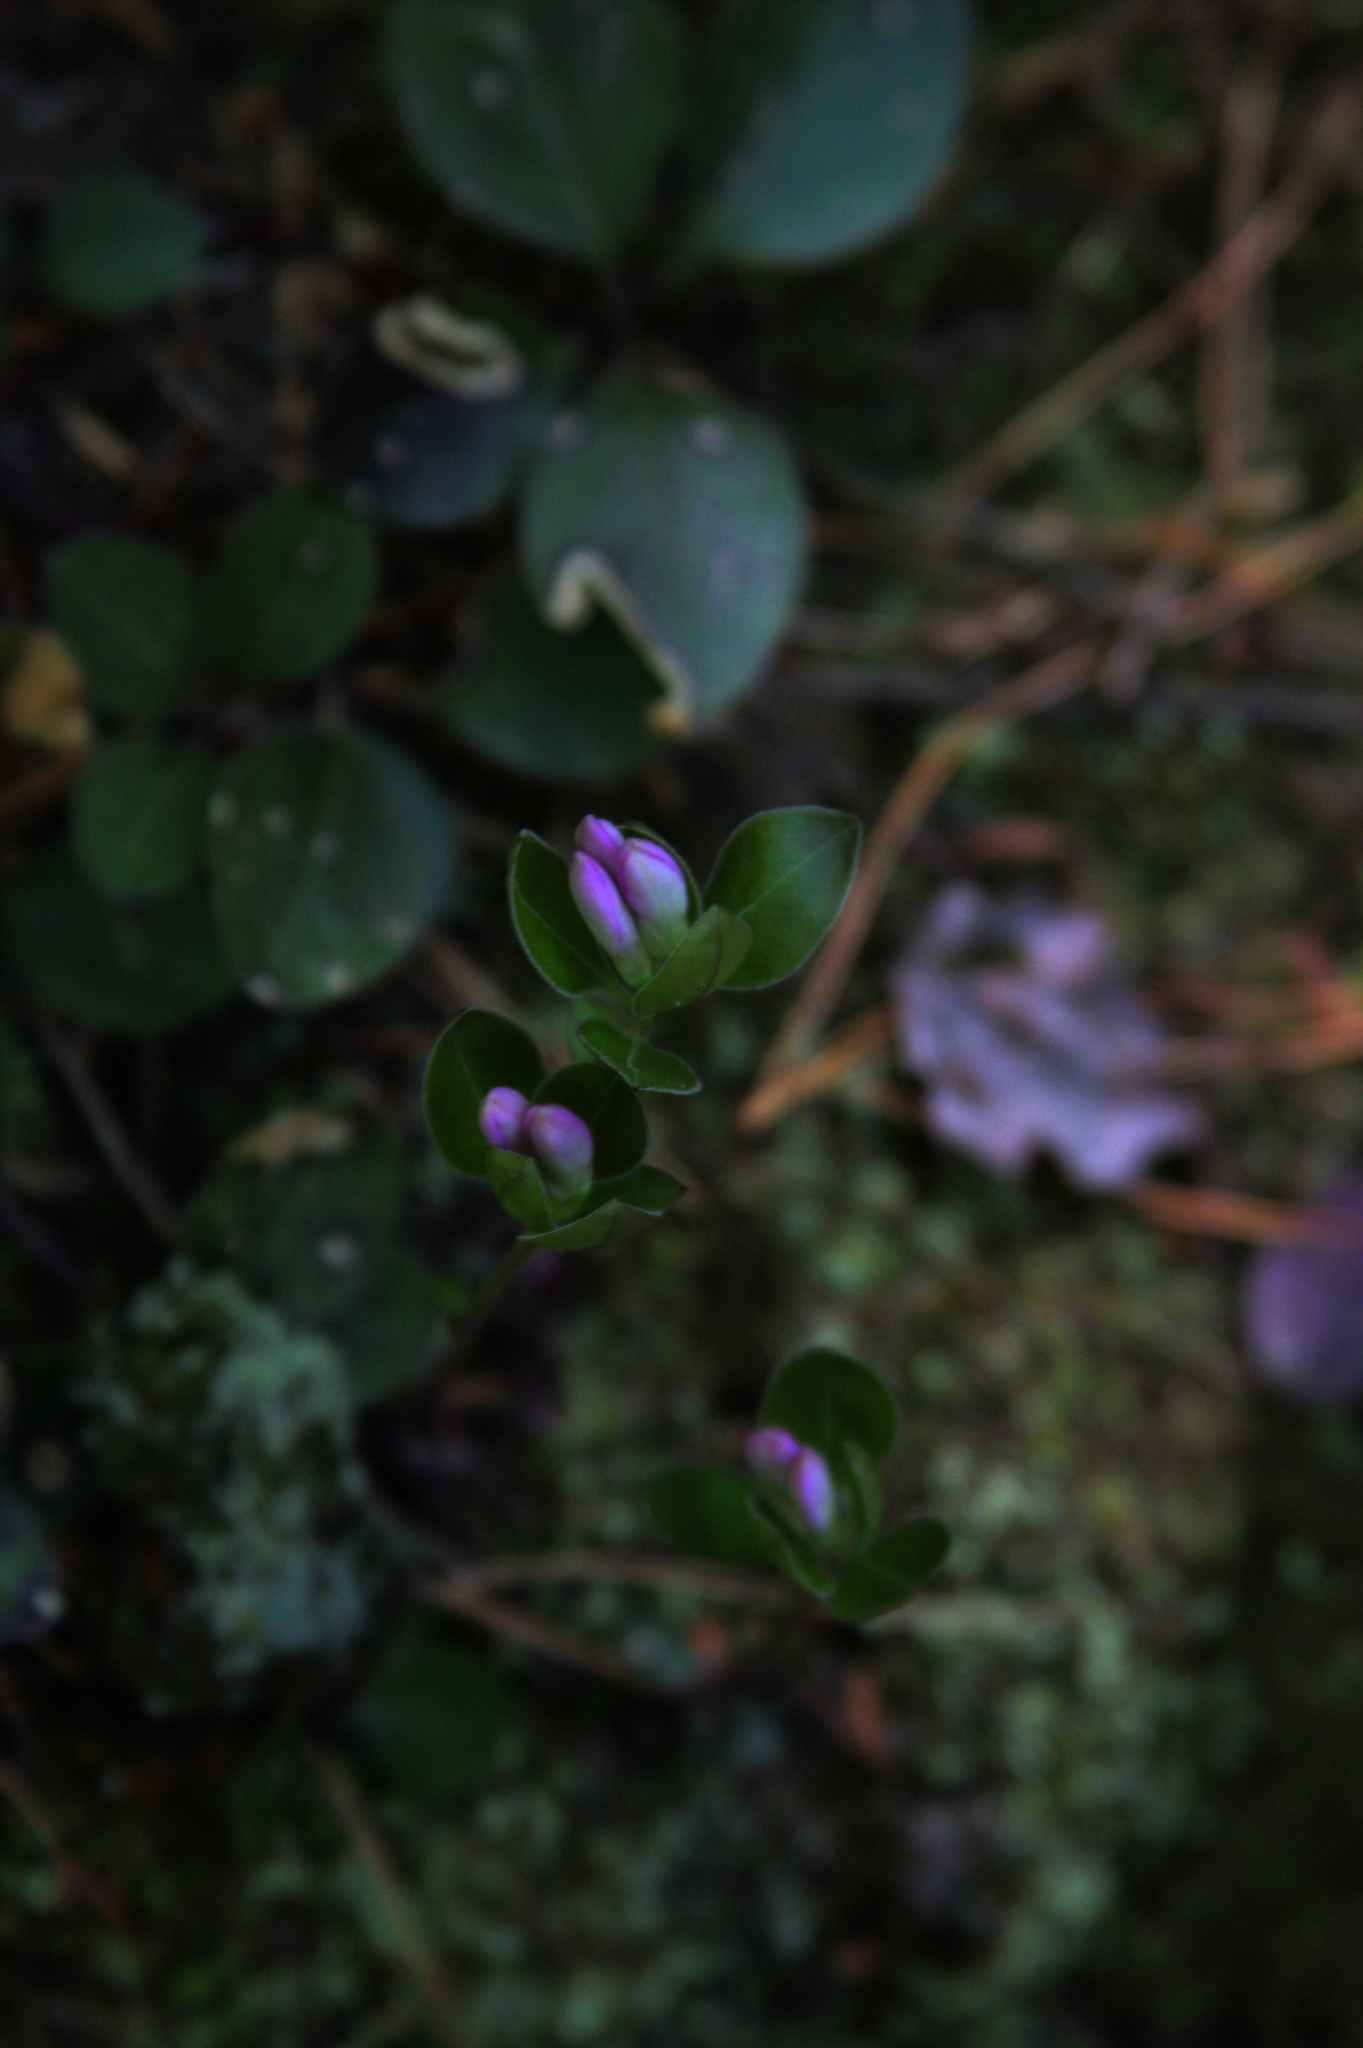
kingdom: Plantae
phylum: Tracheophyta
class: Magnoliopsida
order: Fabales
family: Polygalaceae
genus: Polygaloides
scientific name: Polygaloides paucifolia
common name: Bird-on-the-wing
